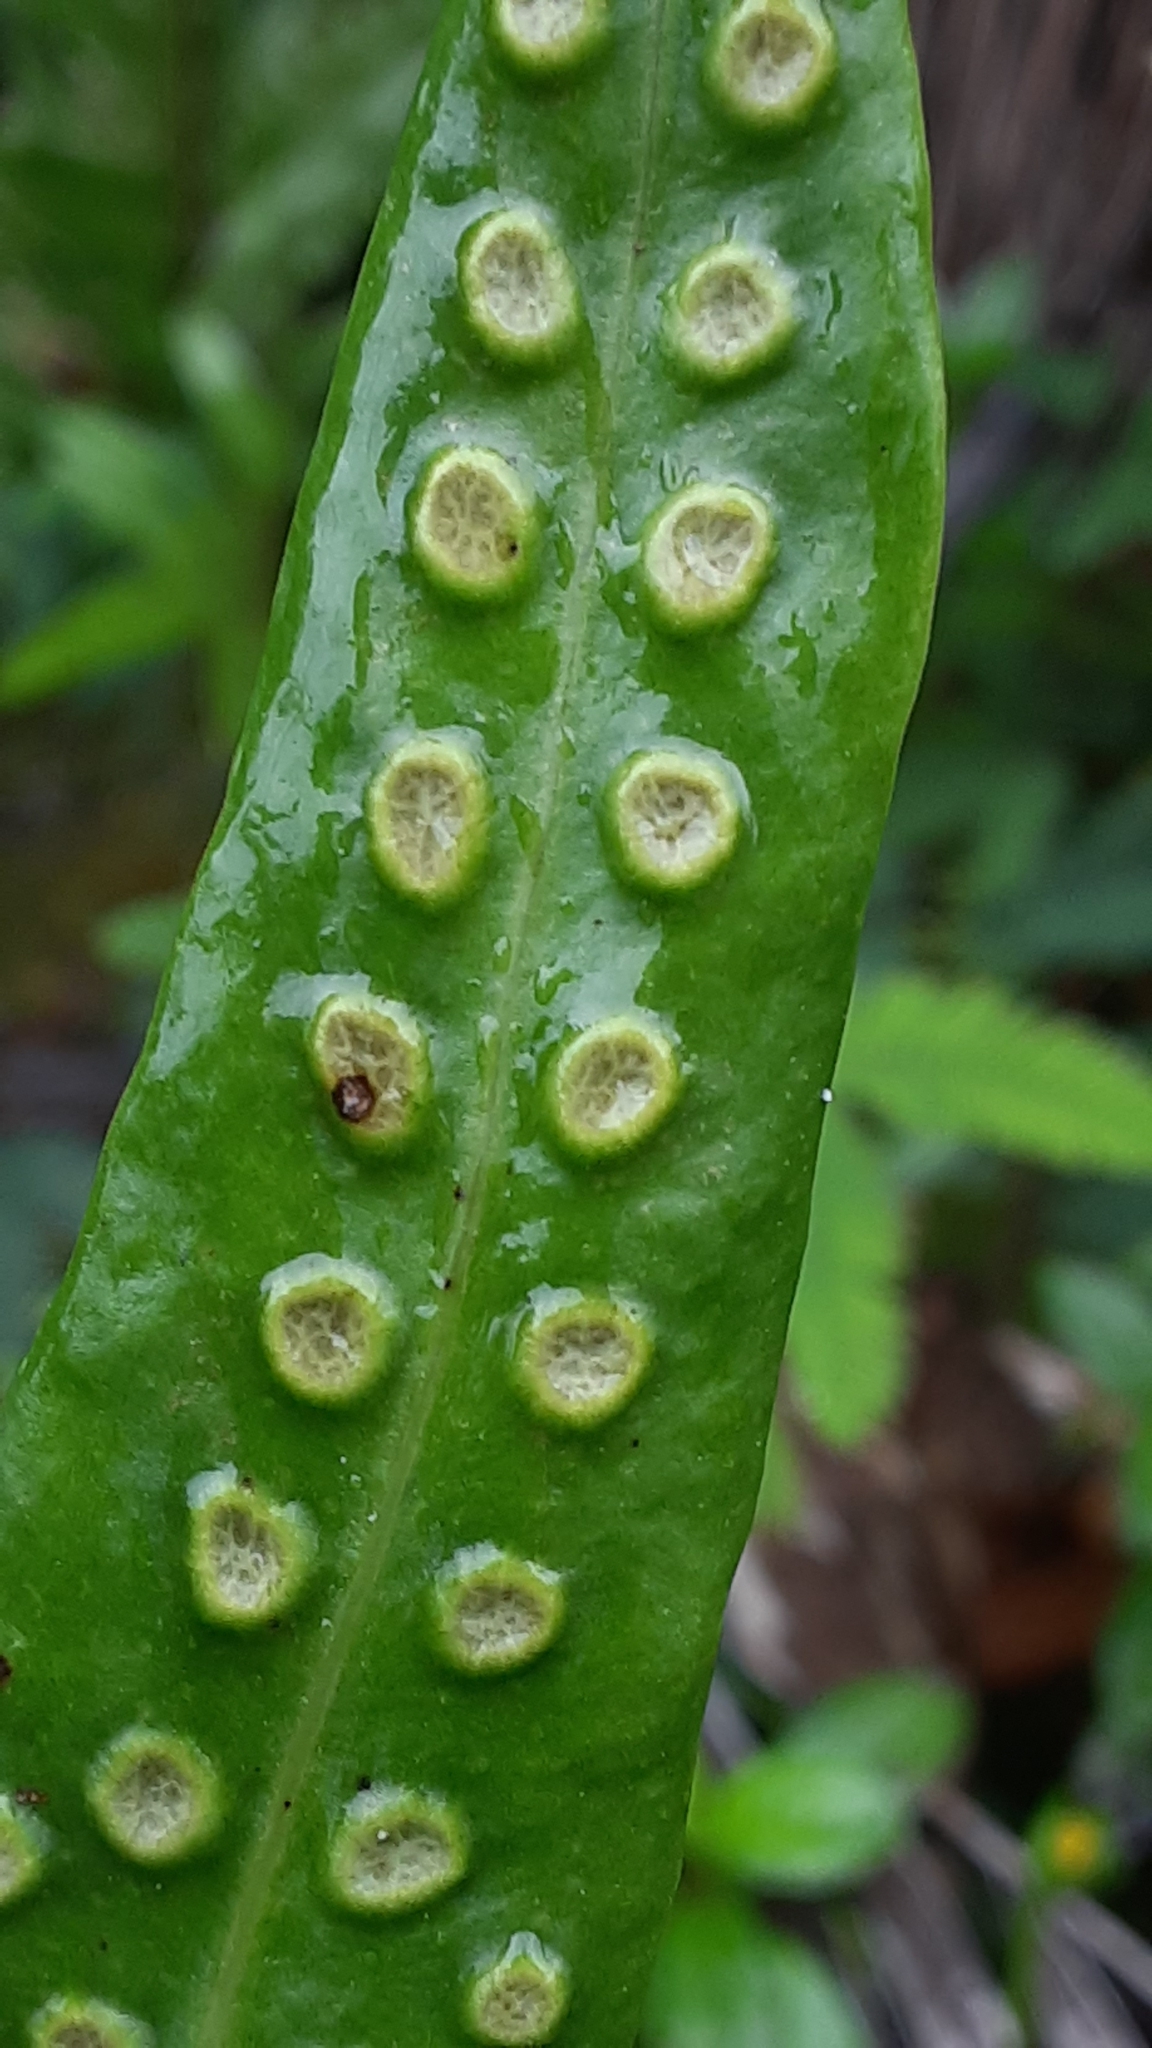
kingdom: Plantae
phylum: Tracheophyta
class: Polypodiopsida
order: Polypodiales
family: Polypodiaceae
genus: Microsorum
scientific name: Microsorum grossum
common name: Musk fern
